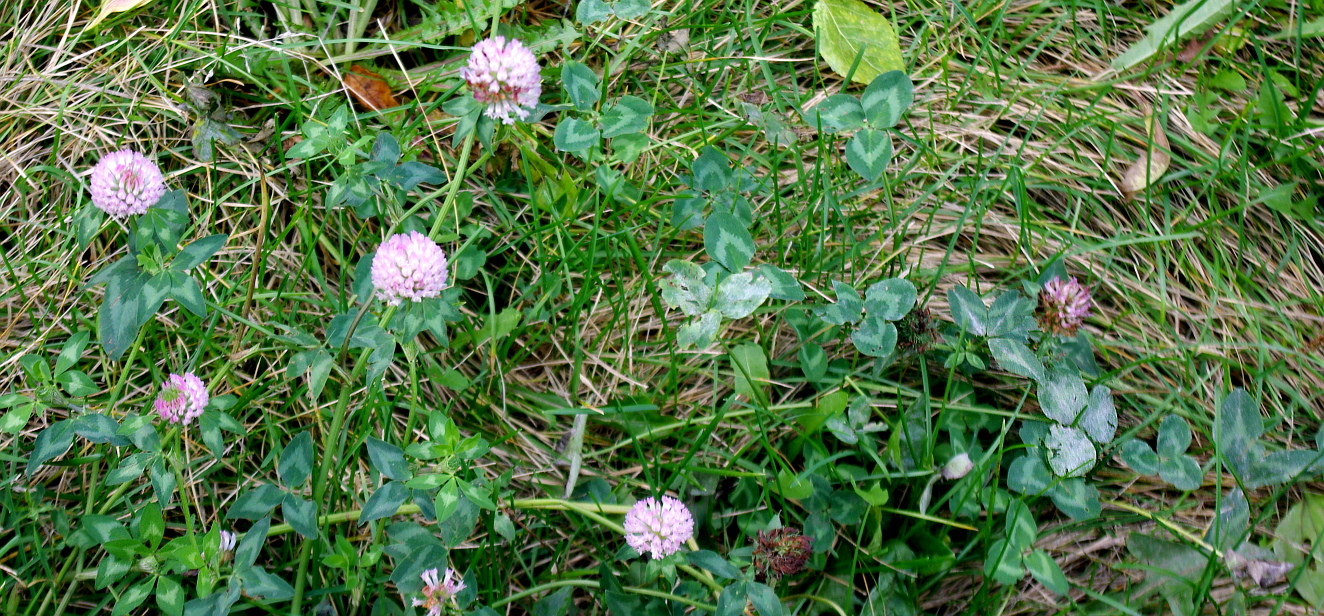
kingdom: Plantae
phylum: Tracheophyta
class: Magnoliopsida
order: Fabales
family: Fabaceae
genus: Trifolium
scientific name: Trifolium pratense
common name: Red clover
